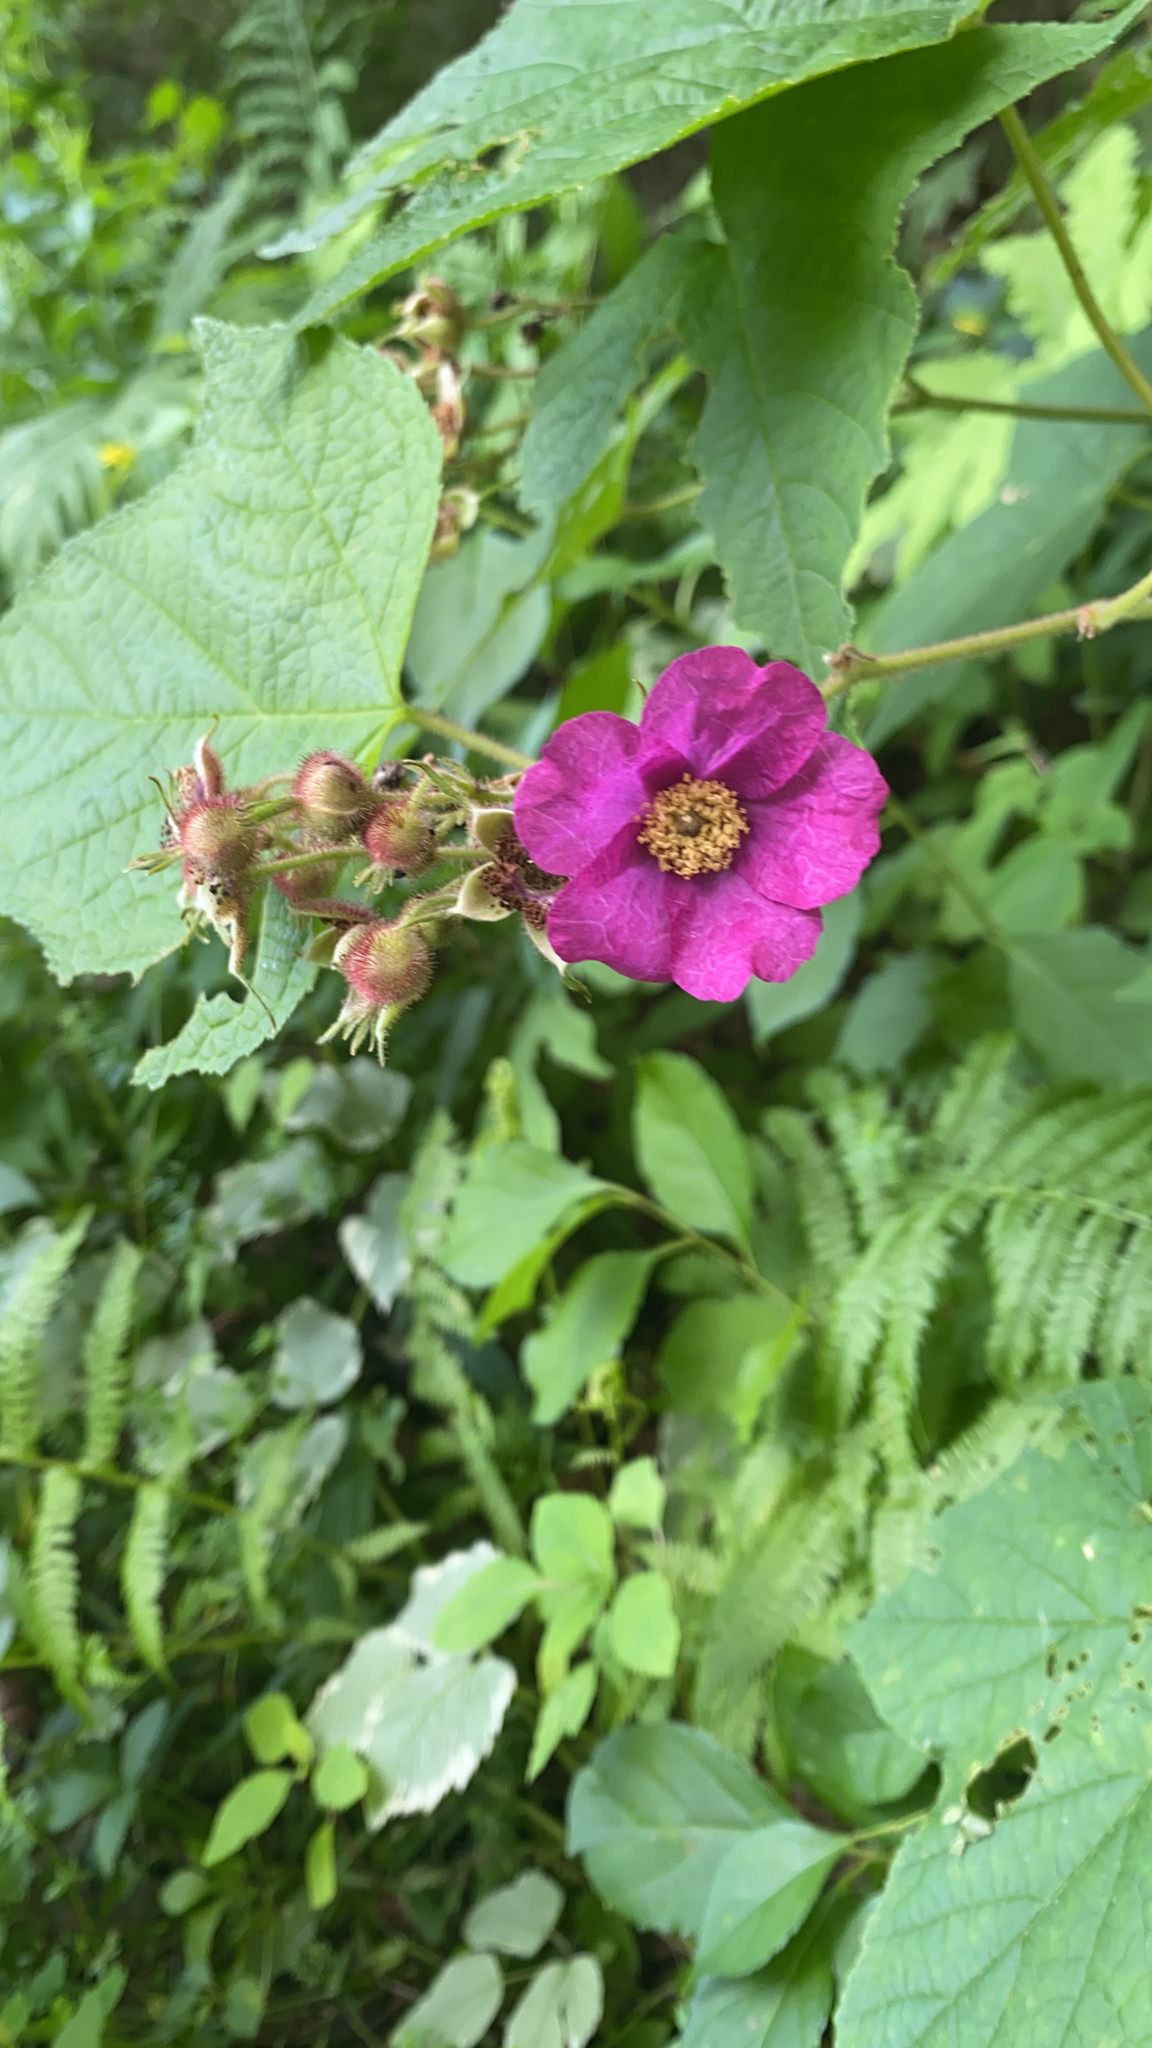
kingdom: Plantae
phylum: Tracheophyta
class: Magnoliopsida
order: Rosales
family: Rosaceae
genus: Rubus
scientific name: Rubus odoratus
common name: Purple-flowered raspberry
